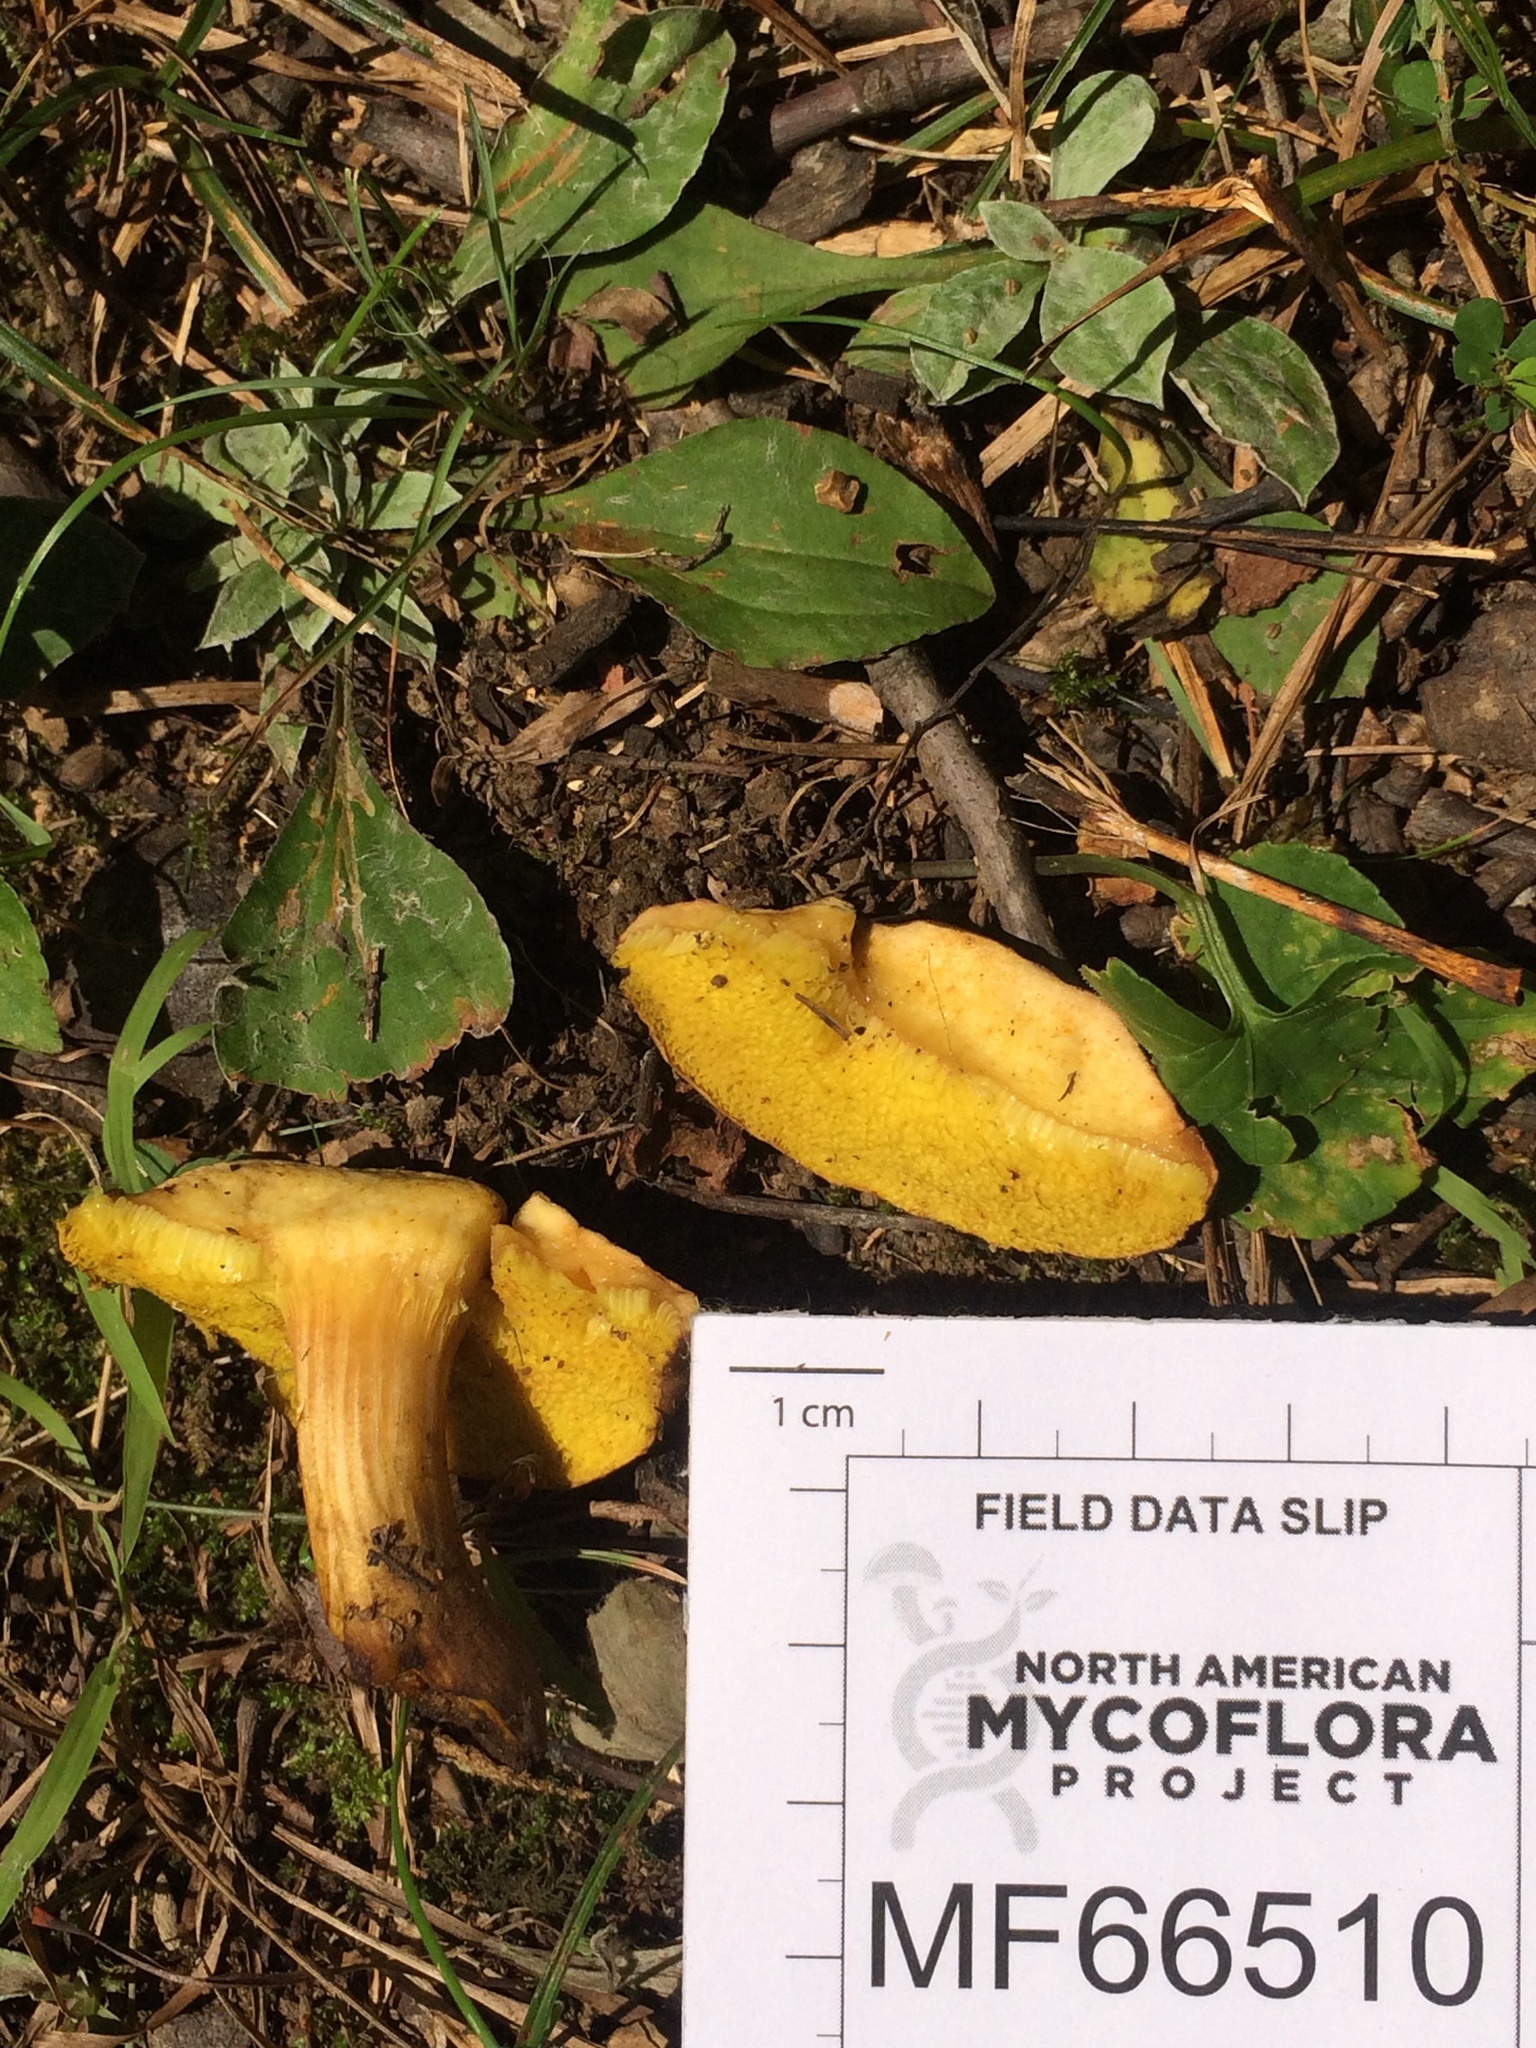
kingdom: Fungi
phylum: Basidiomycota
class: Agaricomycetes
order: Boletales
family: Boletaceae
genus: Aureoboletus
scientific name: Aureoboletus innixus
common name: Clustered brown bolete
